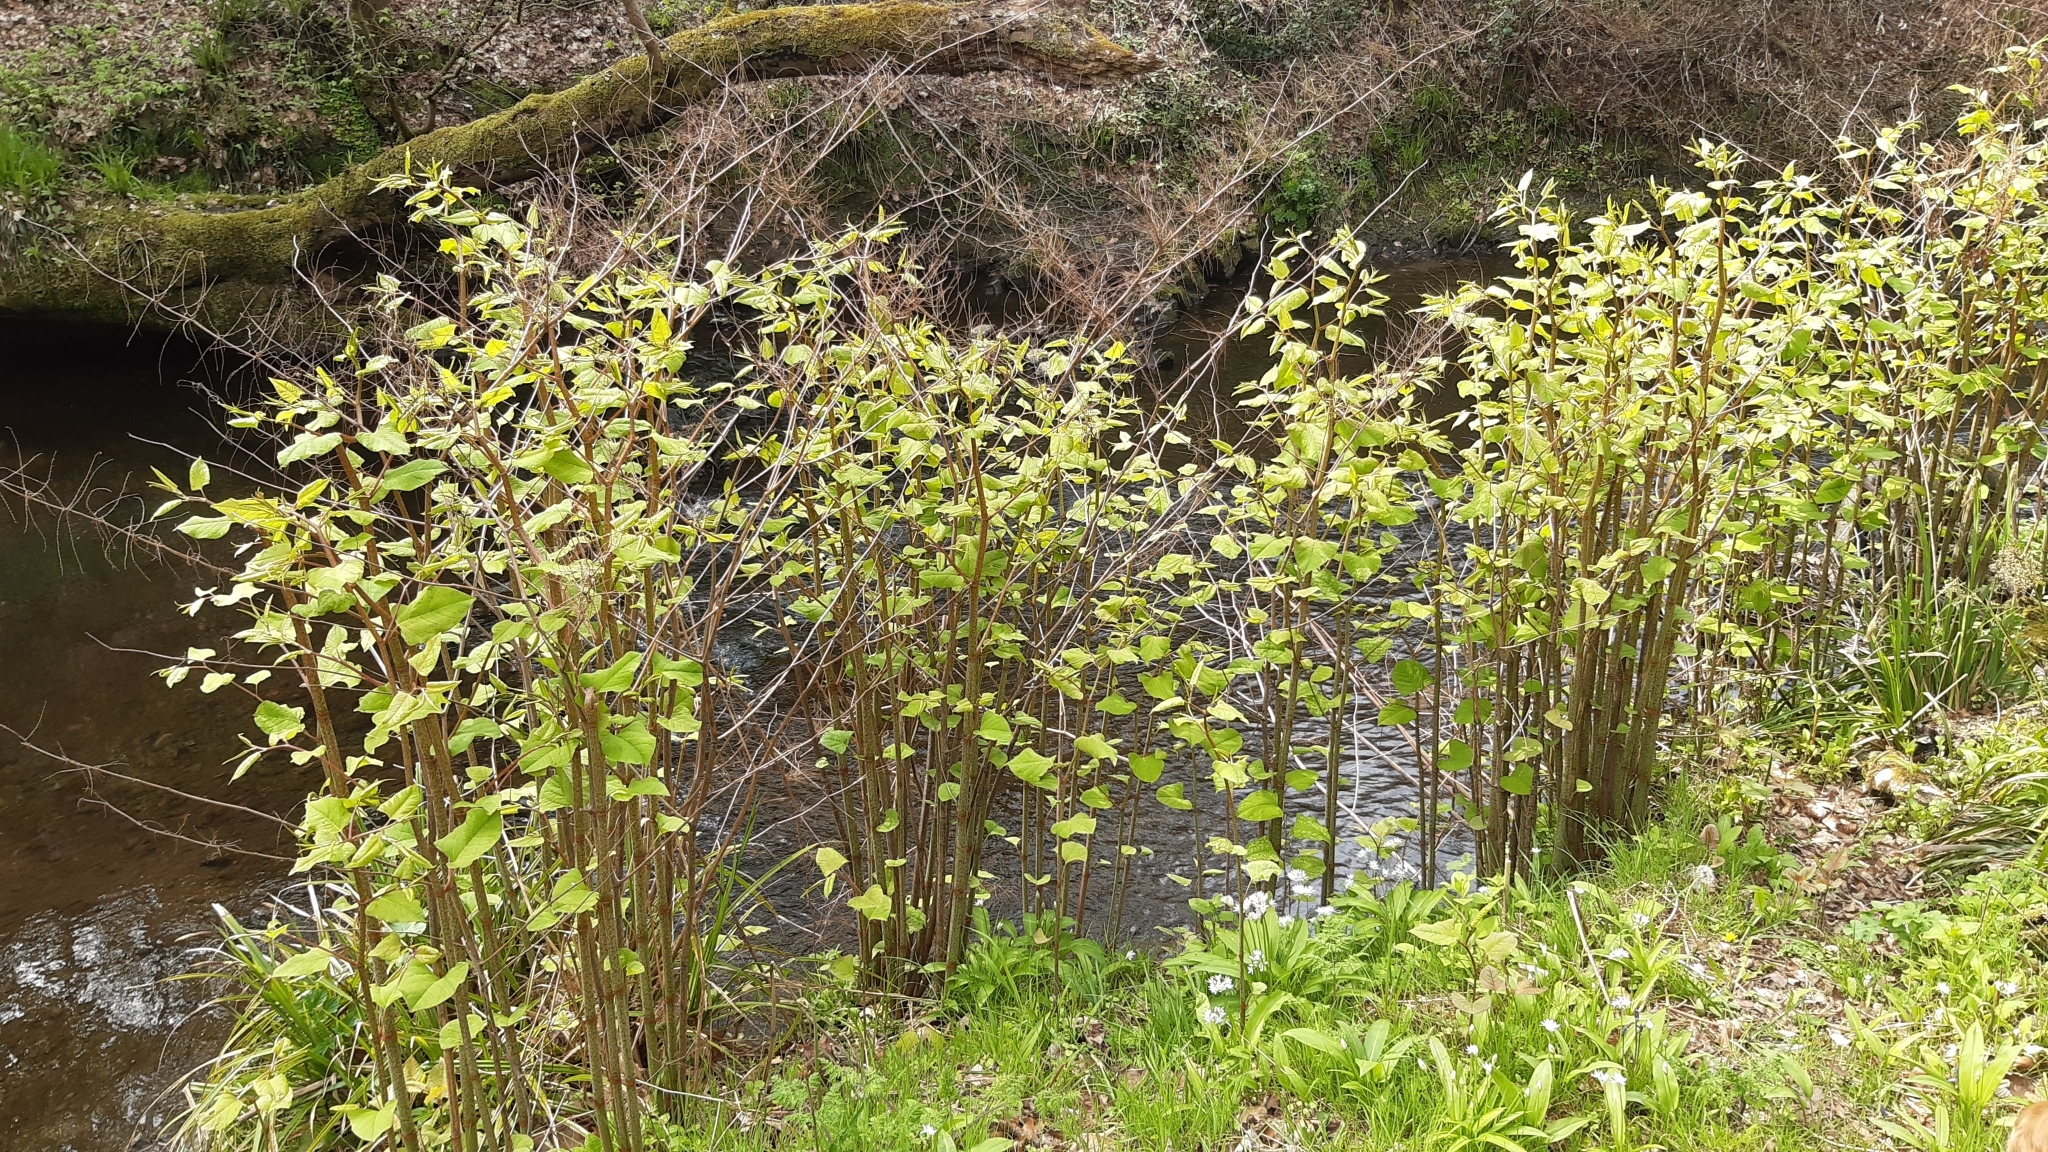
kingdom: Plantae
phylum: Tracheophyta
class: Magnoliopsida
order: Caryophyllales
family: Polygonaceae
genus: Reynoutria
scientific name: Reynoutria japonica
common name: Japanese knotweed
